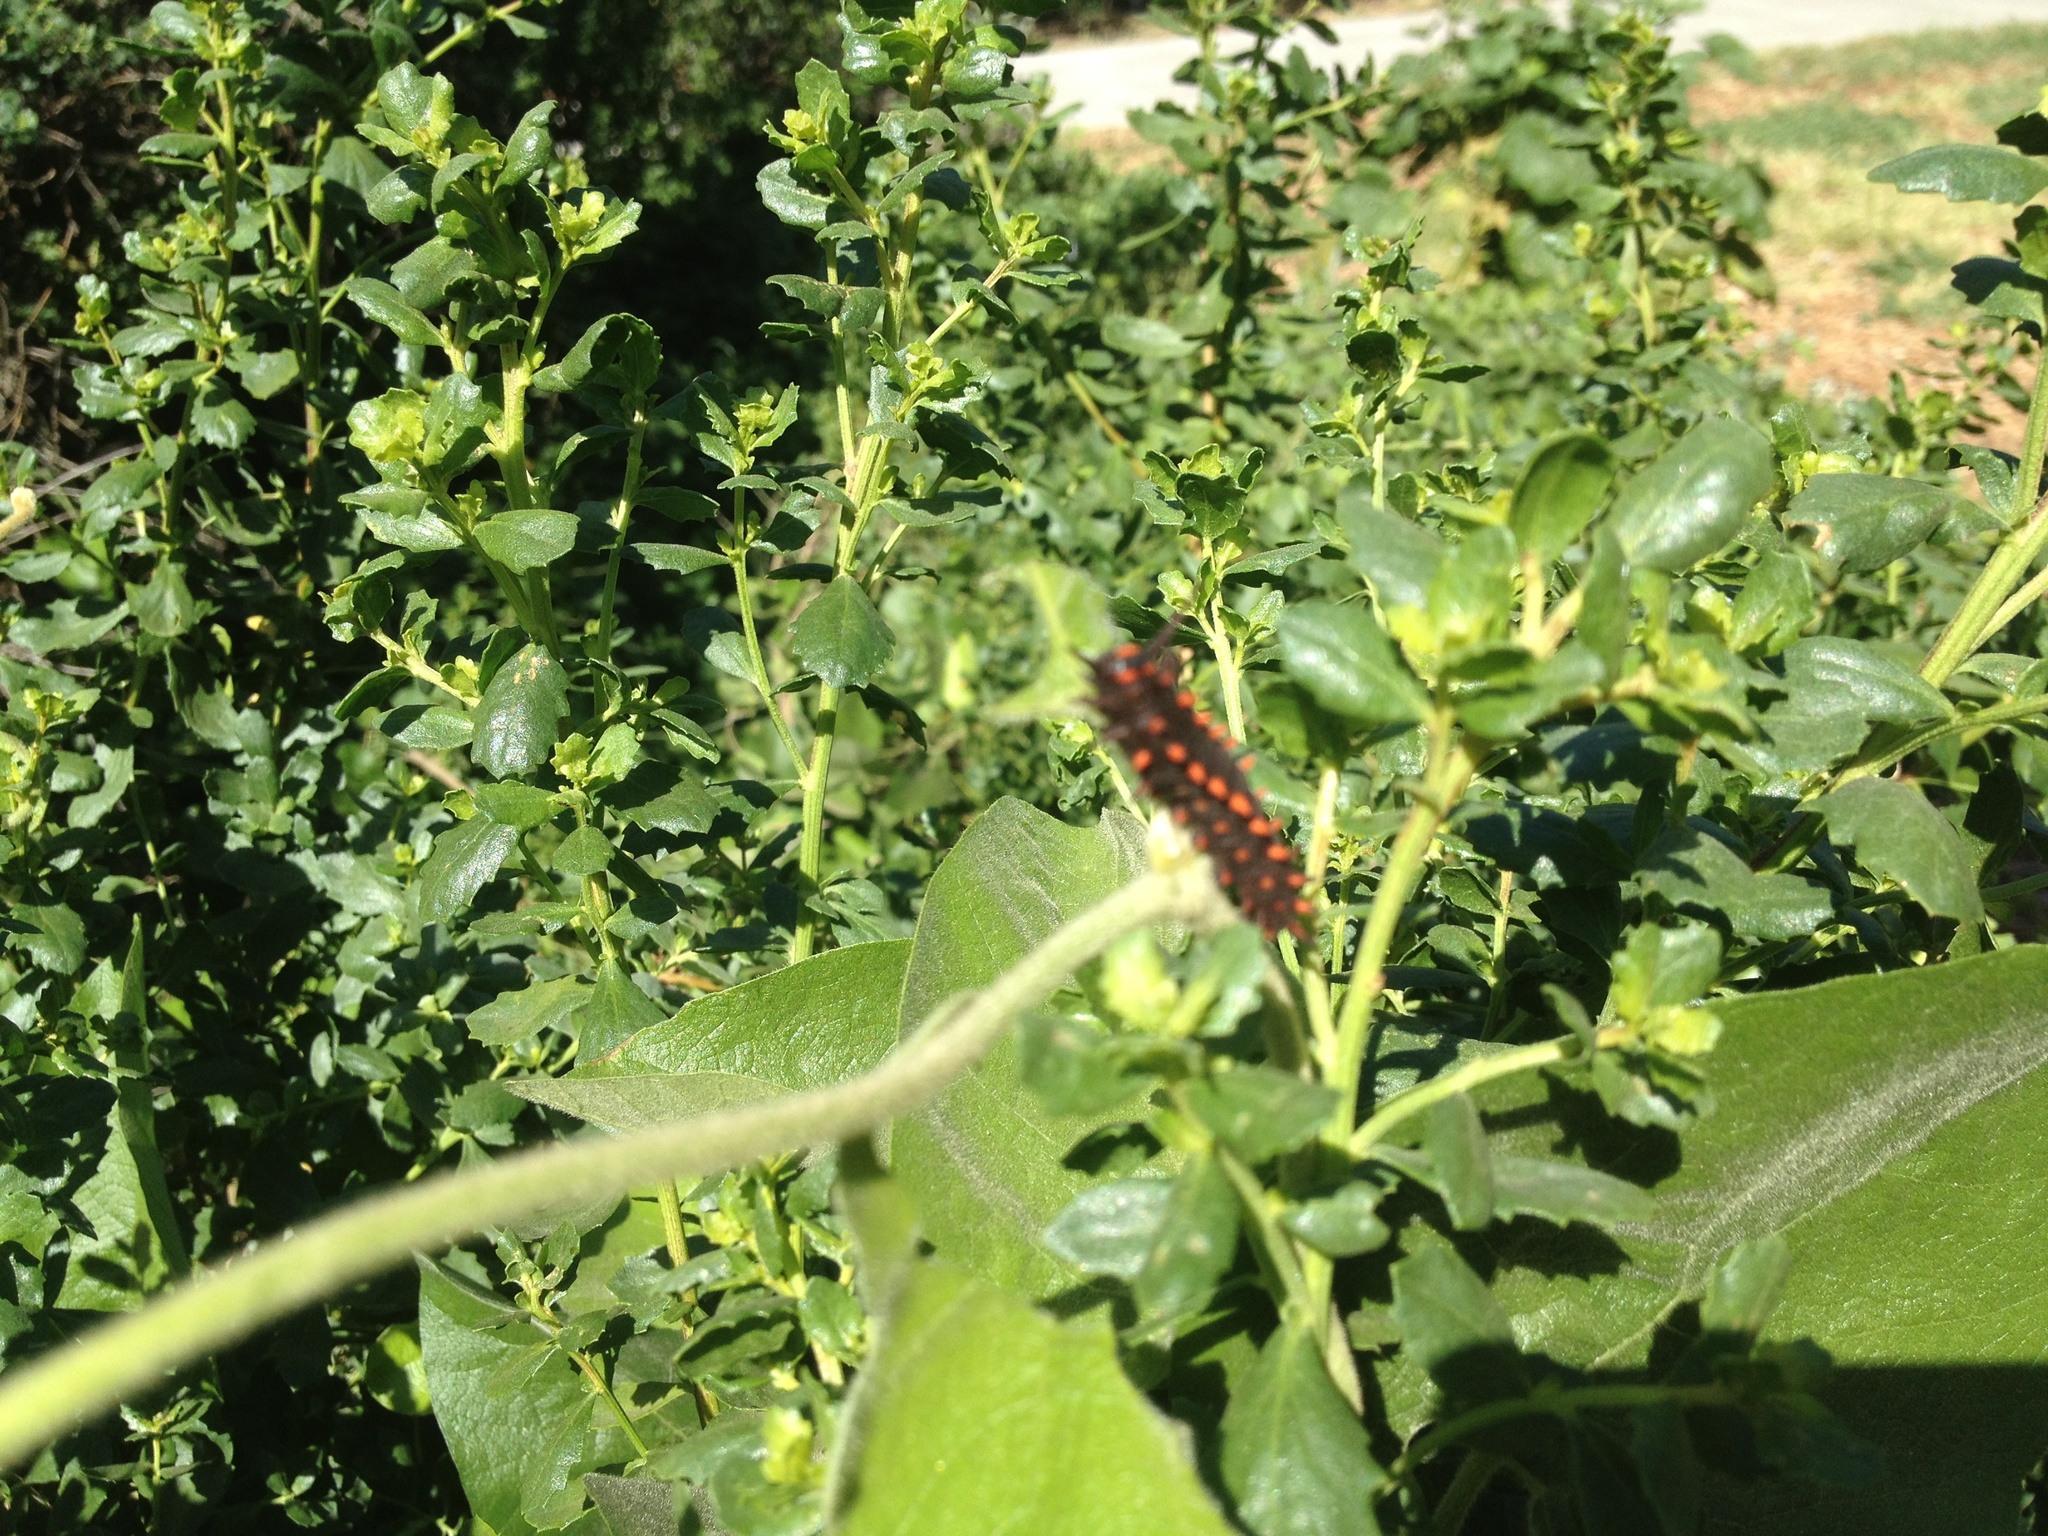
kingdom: Animalia
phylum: Arthropoda
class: Insecta
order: Lepidoptera
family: Papilionidae
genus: Battus
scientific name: Battus philenor
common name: Pipevine swallowtail
